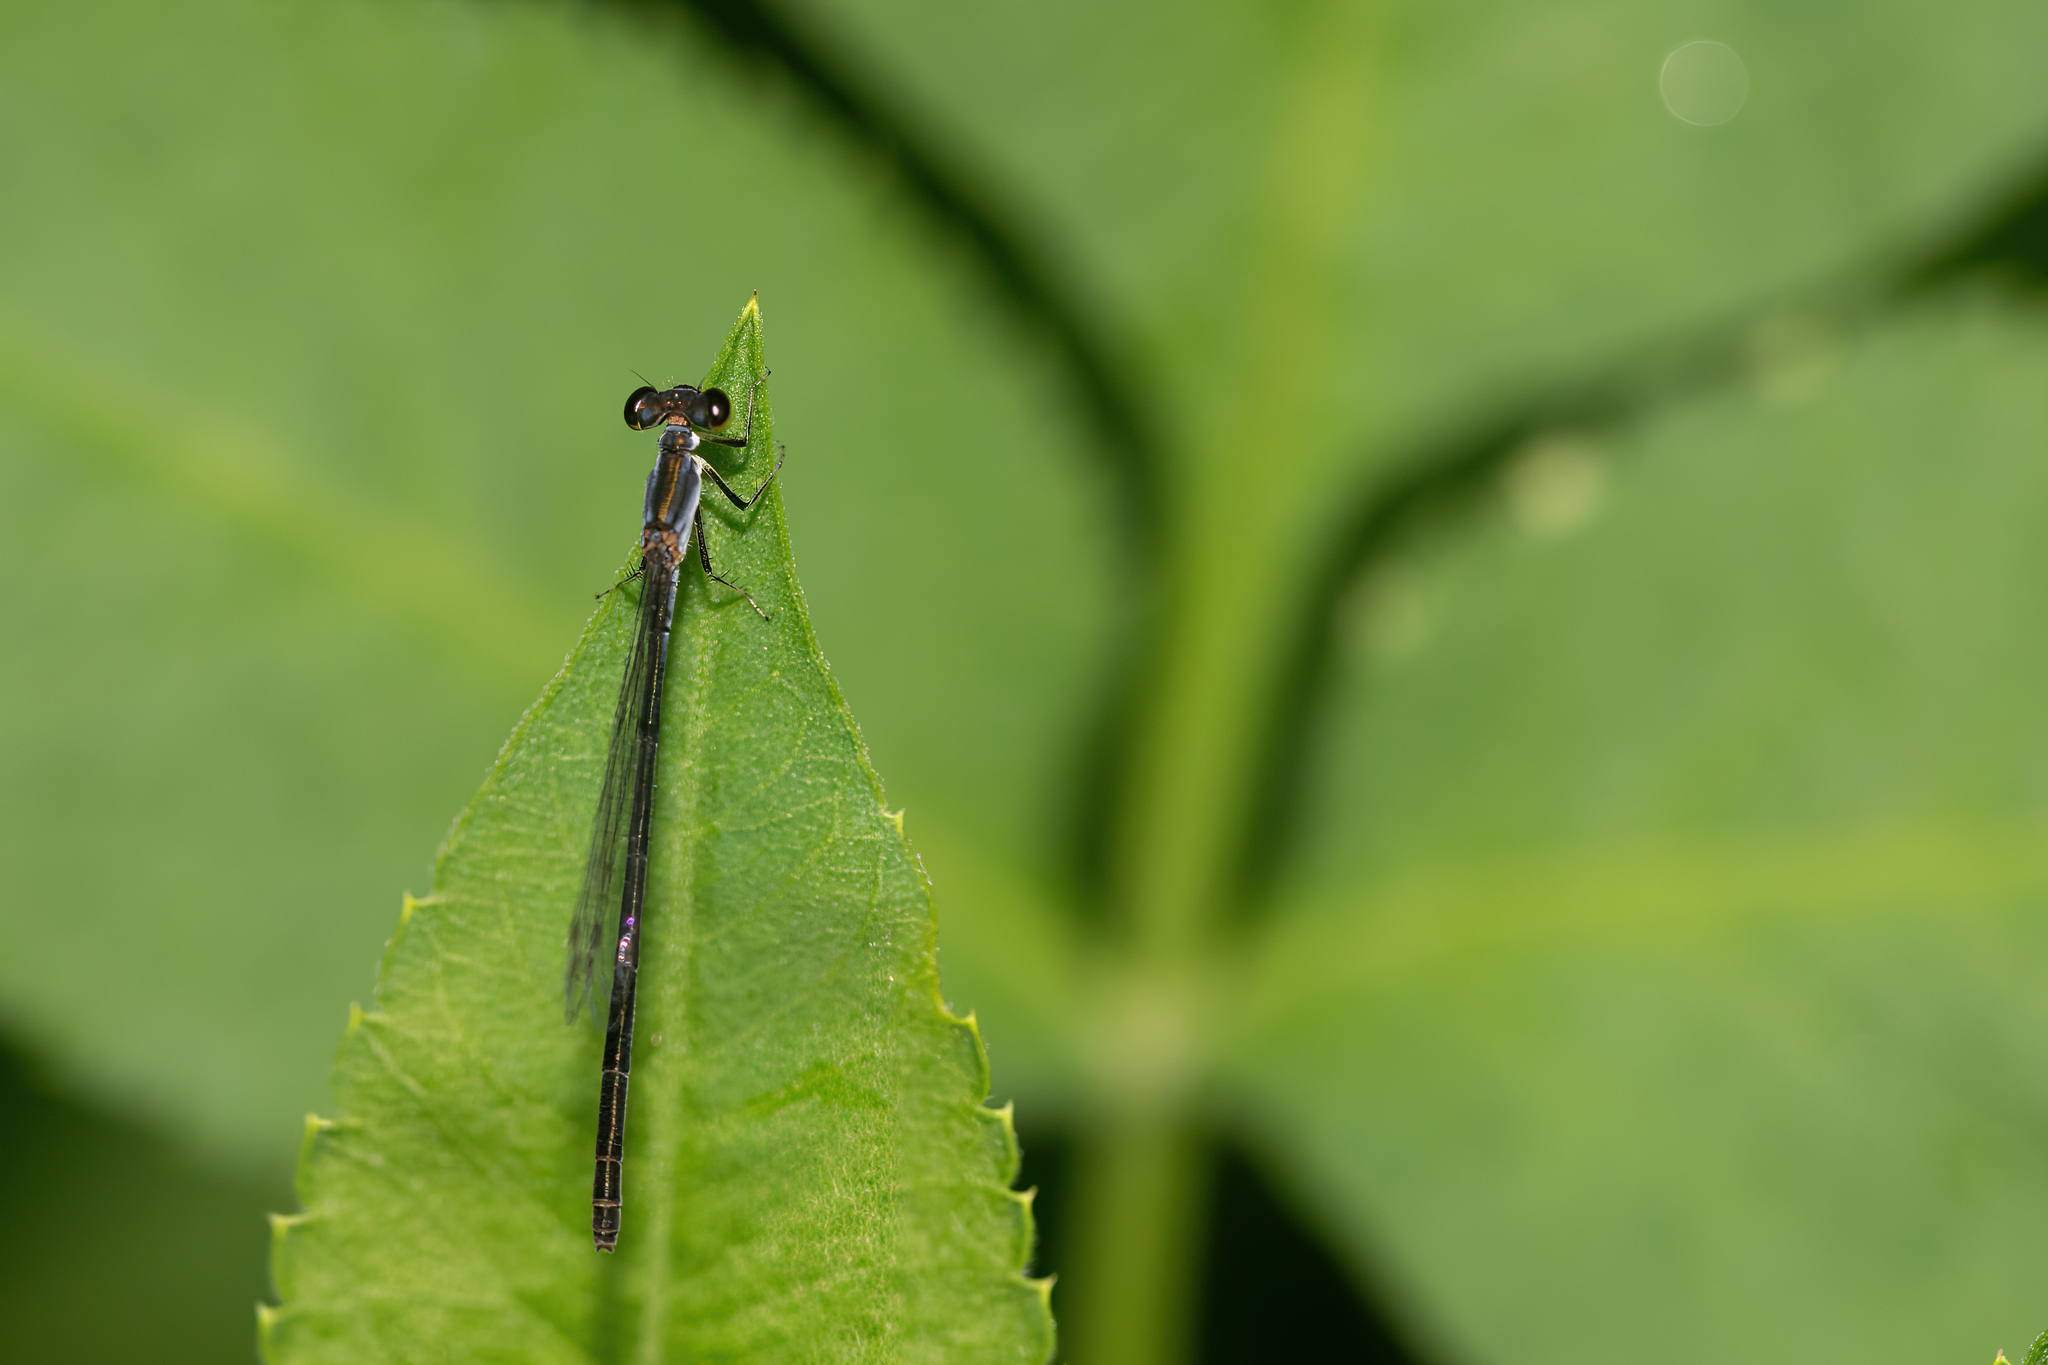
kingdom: Animalia
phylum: Arthropoda
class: Insecta
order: Odonata
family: Coenagrionidae
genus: Ischnura
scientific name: Ischnura posita
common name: Fragile forktail
